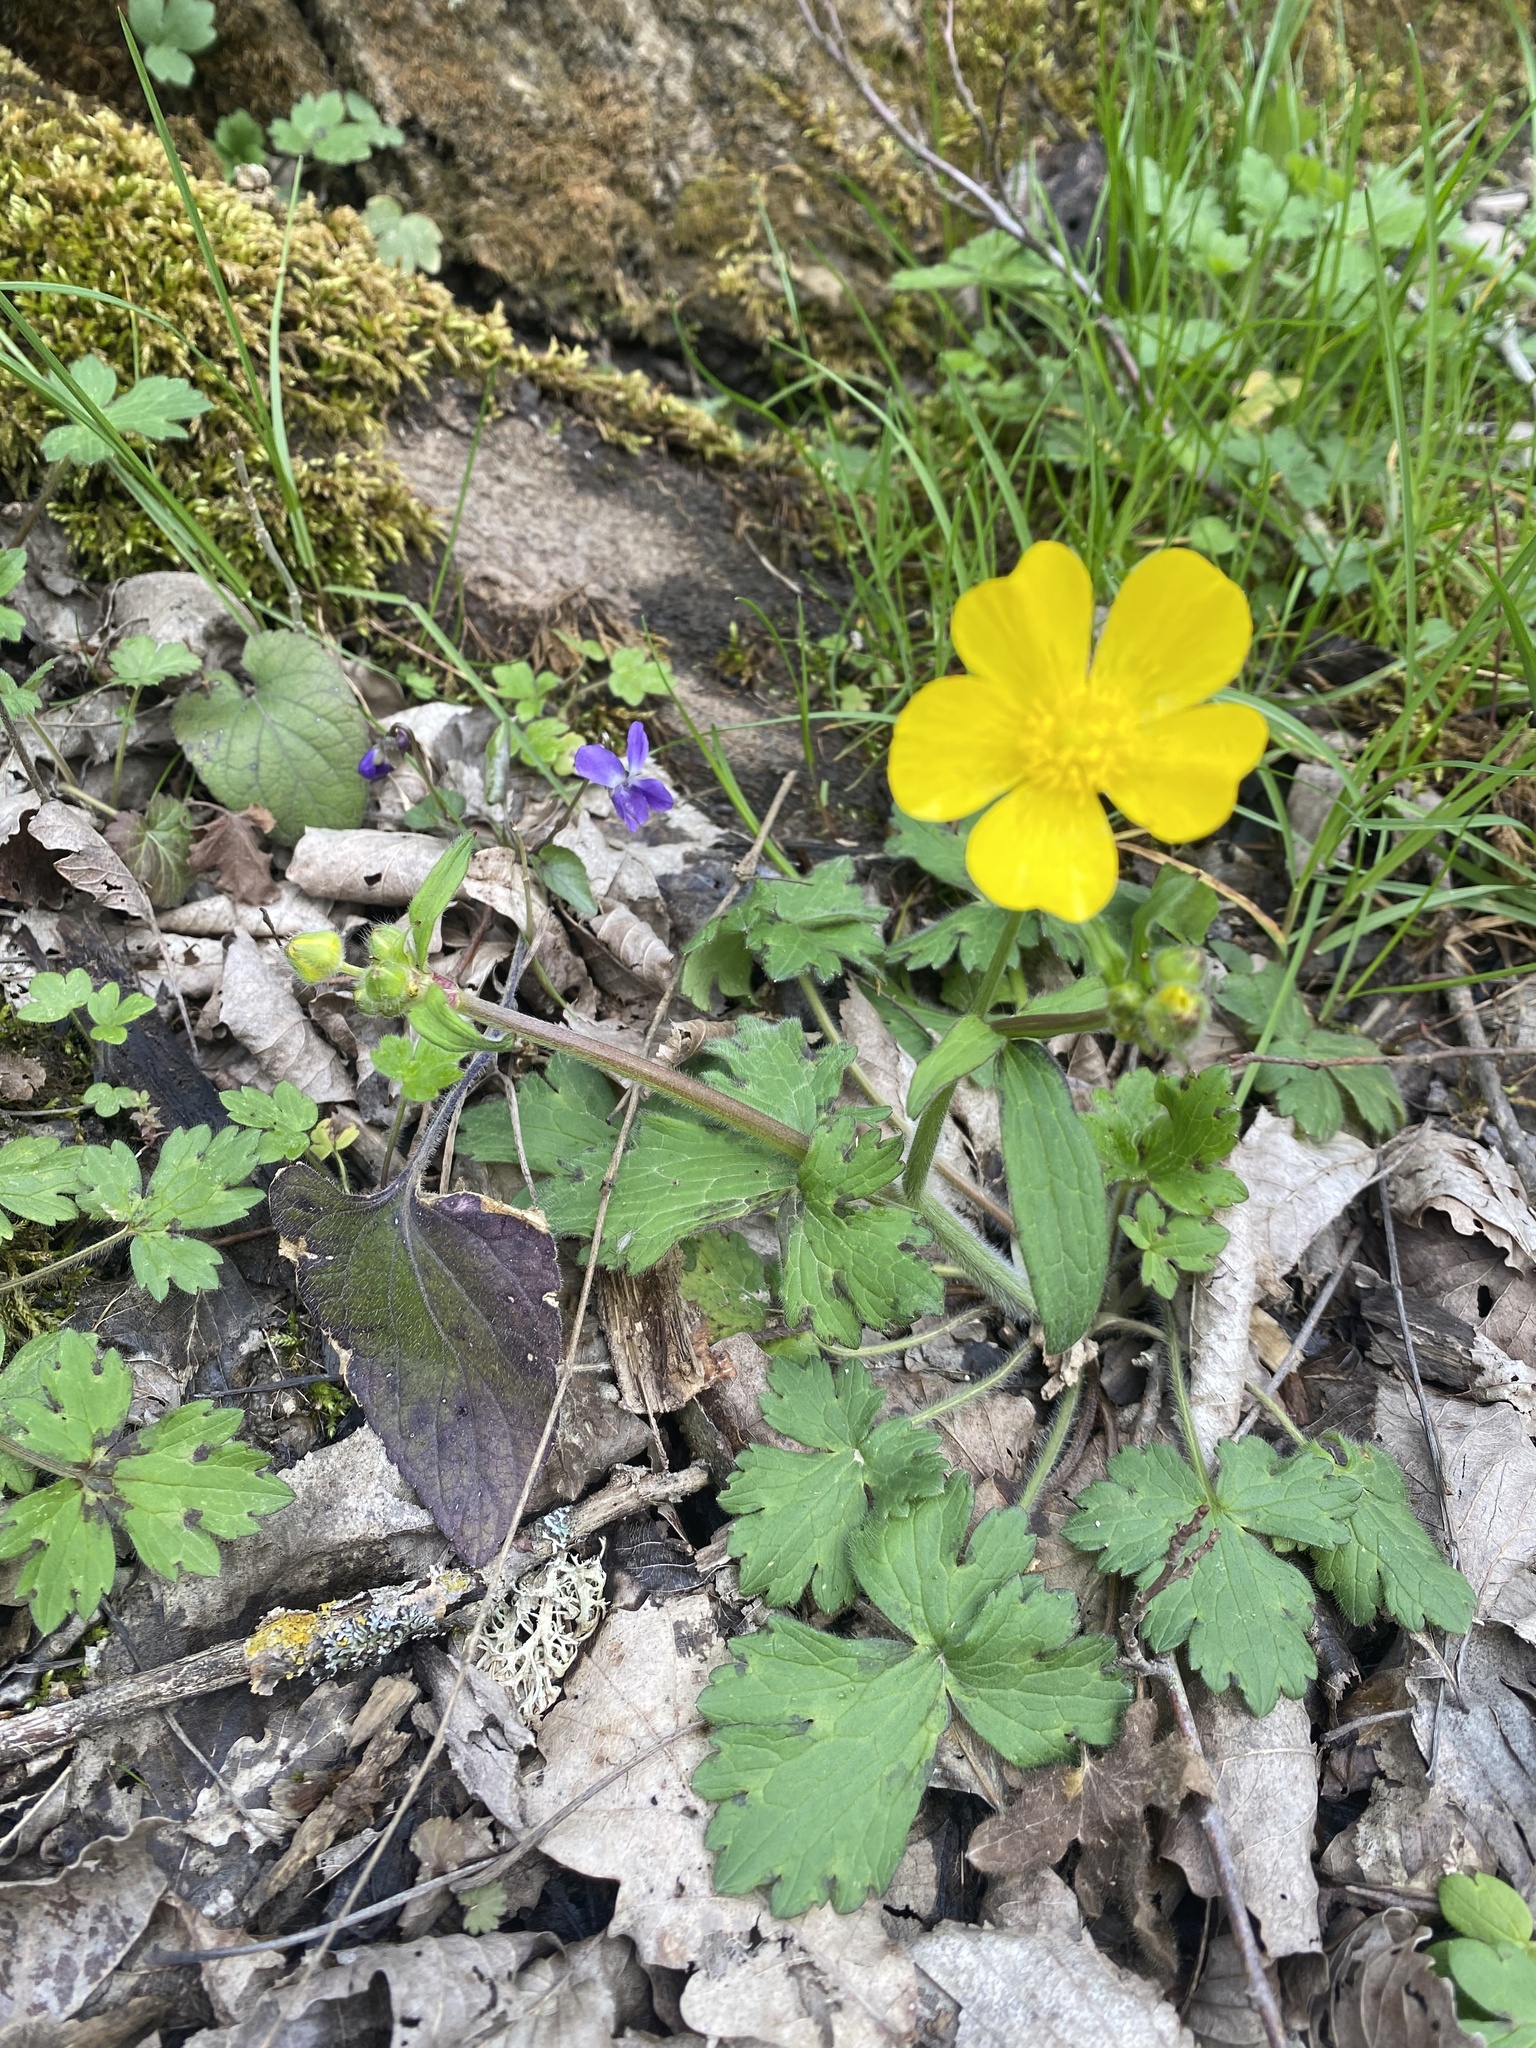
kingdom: Plantae
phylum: Tracheophyta
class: Magnoliopsida
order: Ranunculales
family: Ranunculaceae
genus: Ranunculus
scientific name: Ranunculus constantinopolitanus
